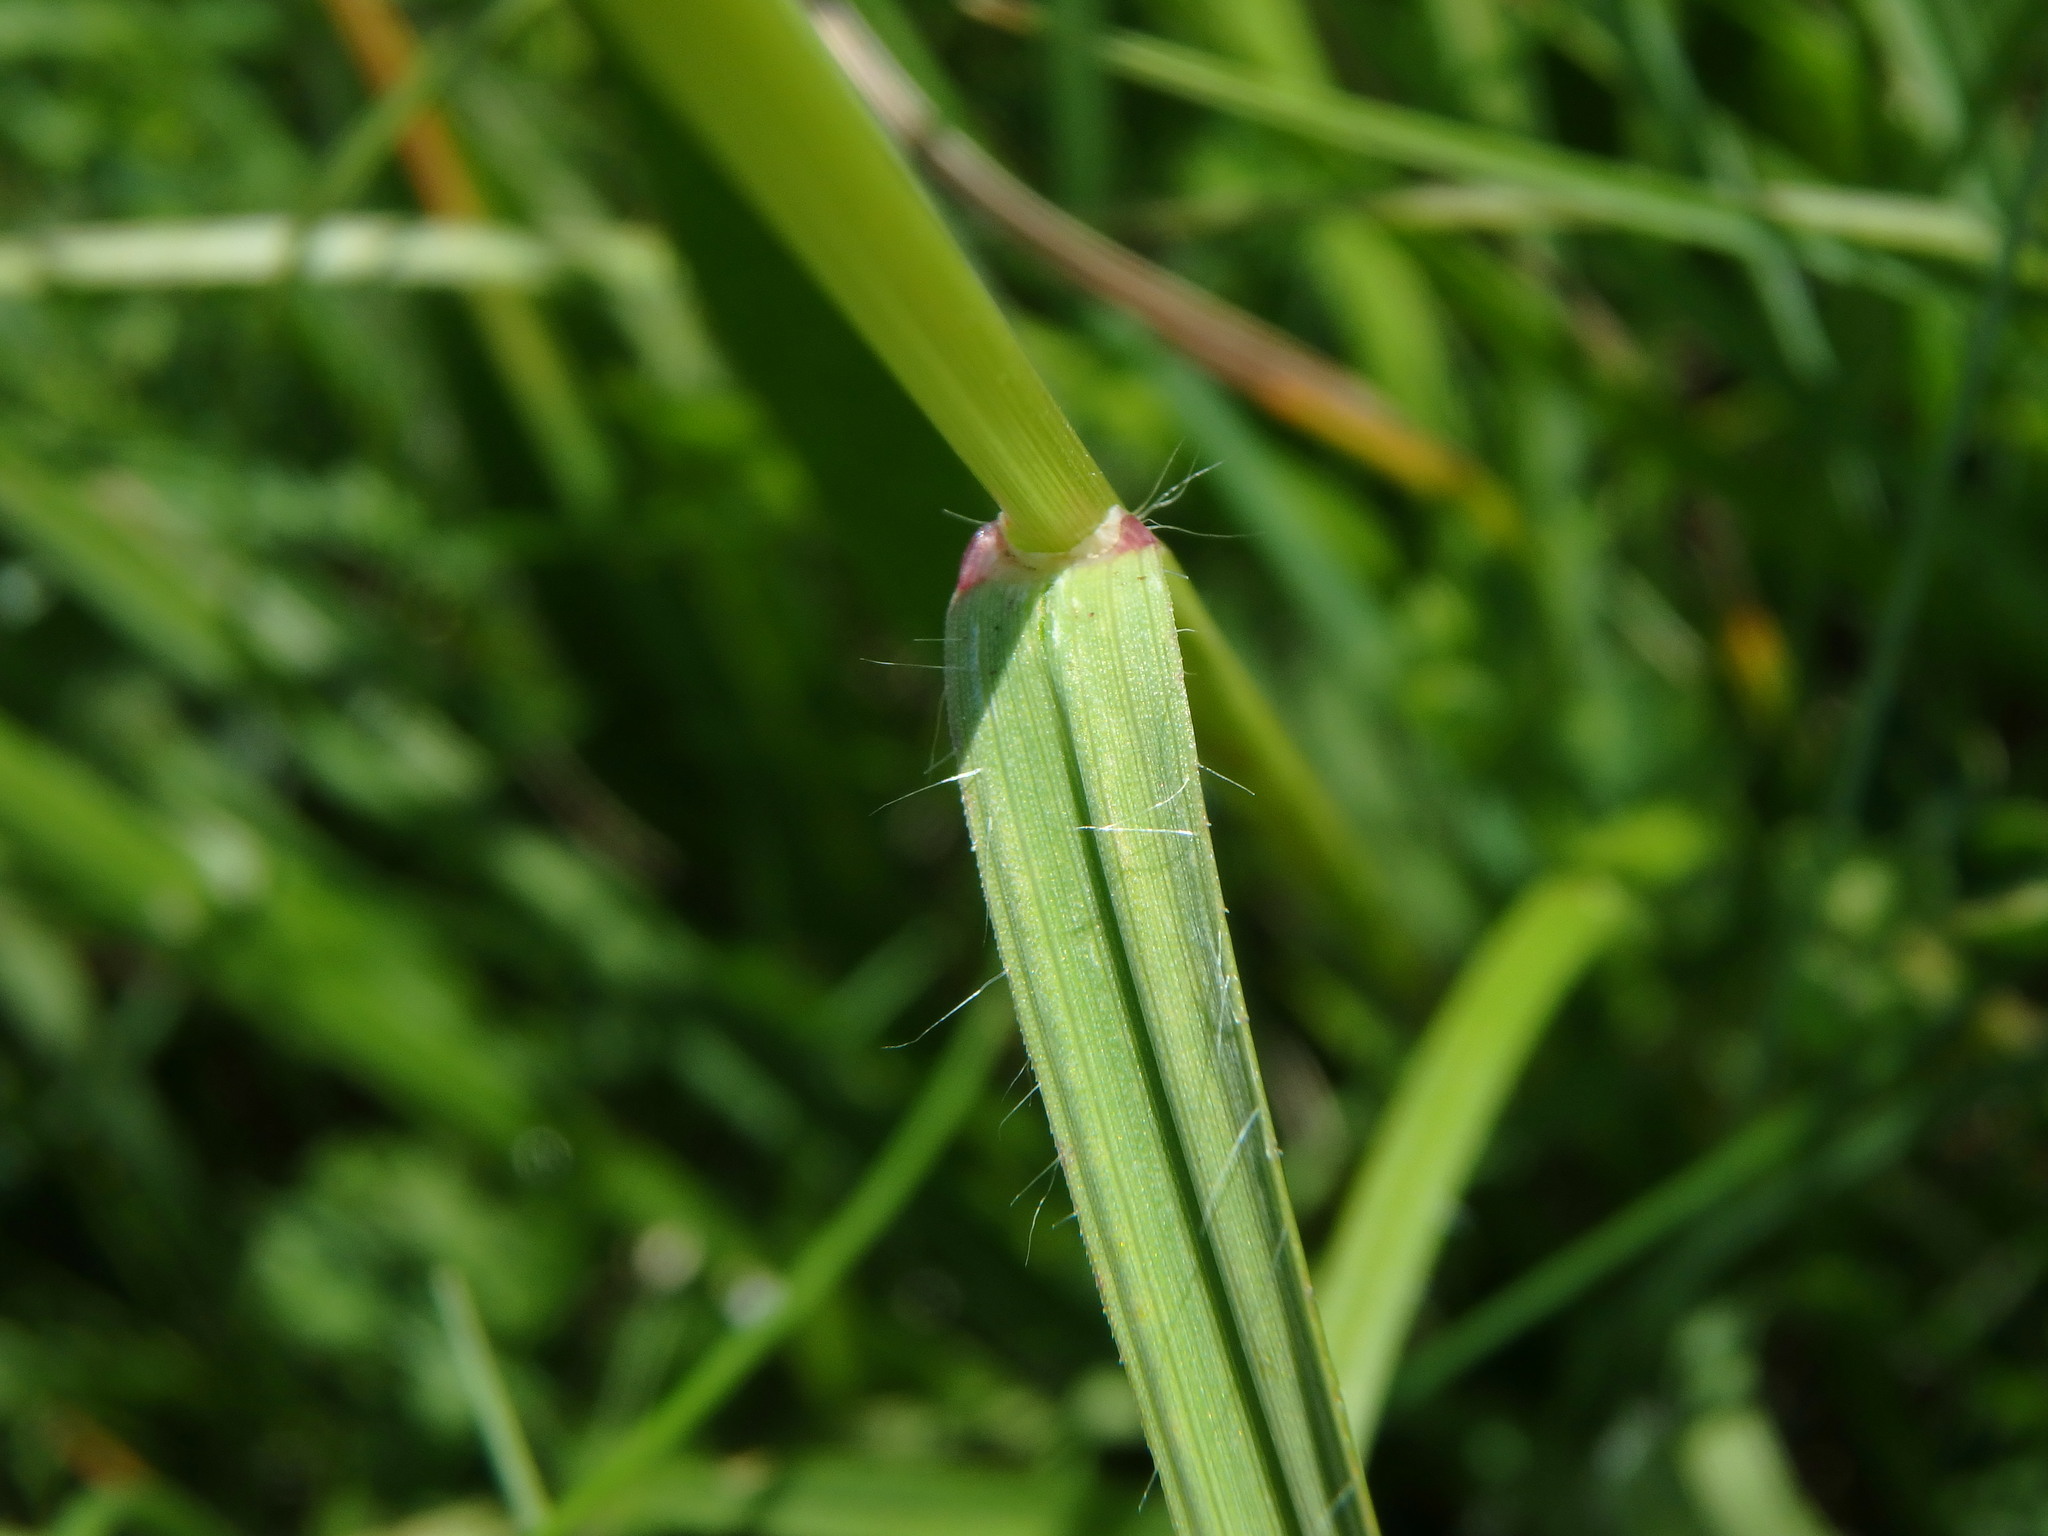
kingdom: Plantae
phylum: Tracheophyta
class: Liliopsida
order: Poales
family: Poaceae
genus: Bromus
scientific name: Bromus erectus
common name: Erect brome
